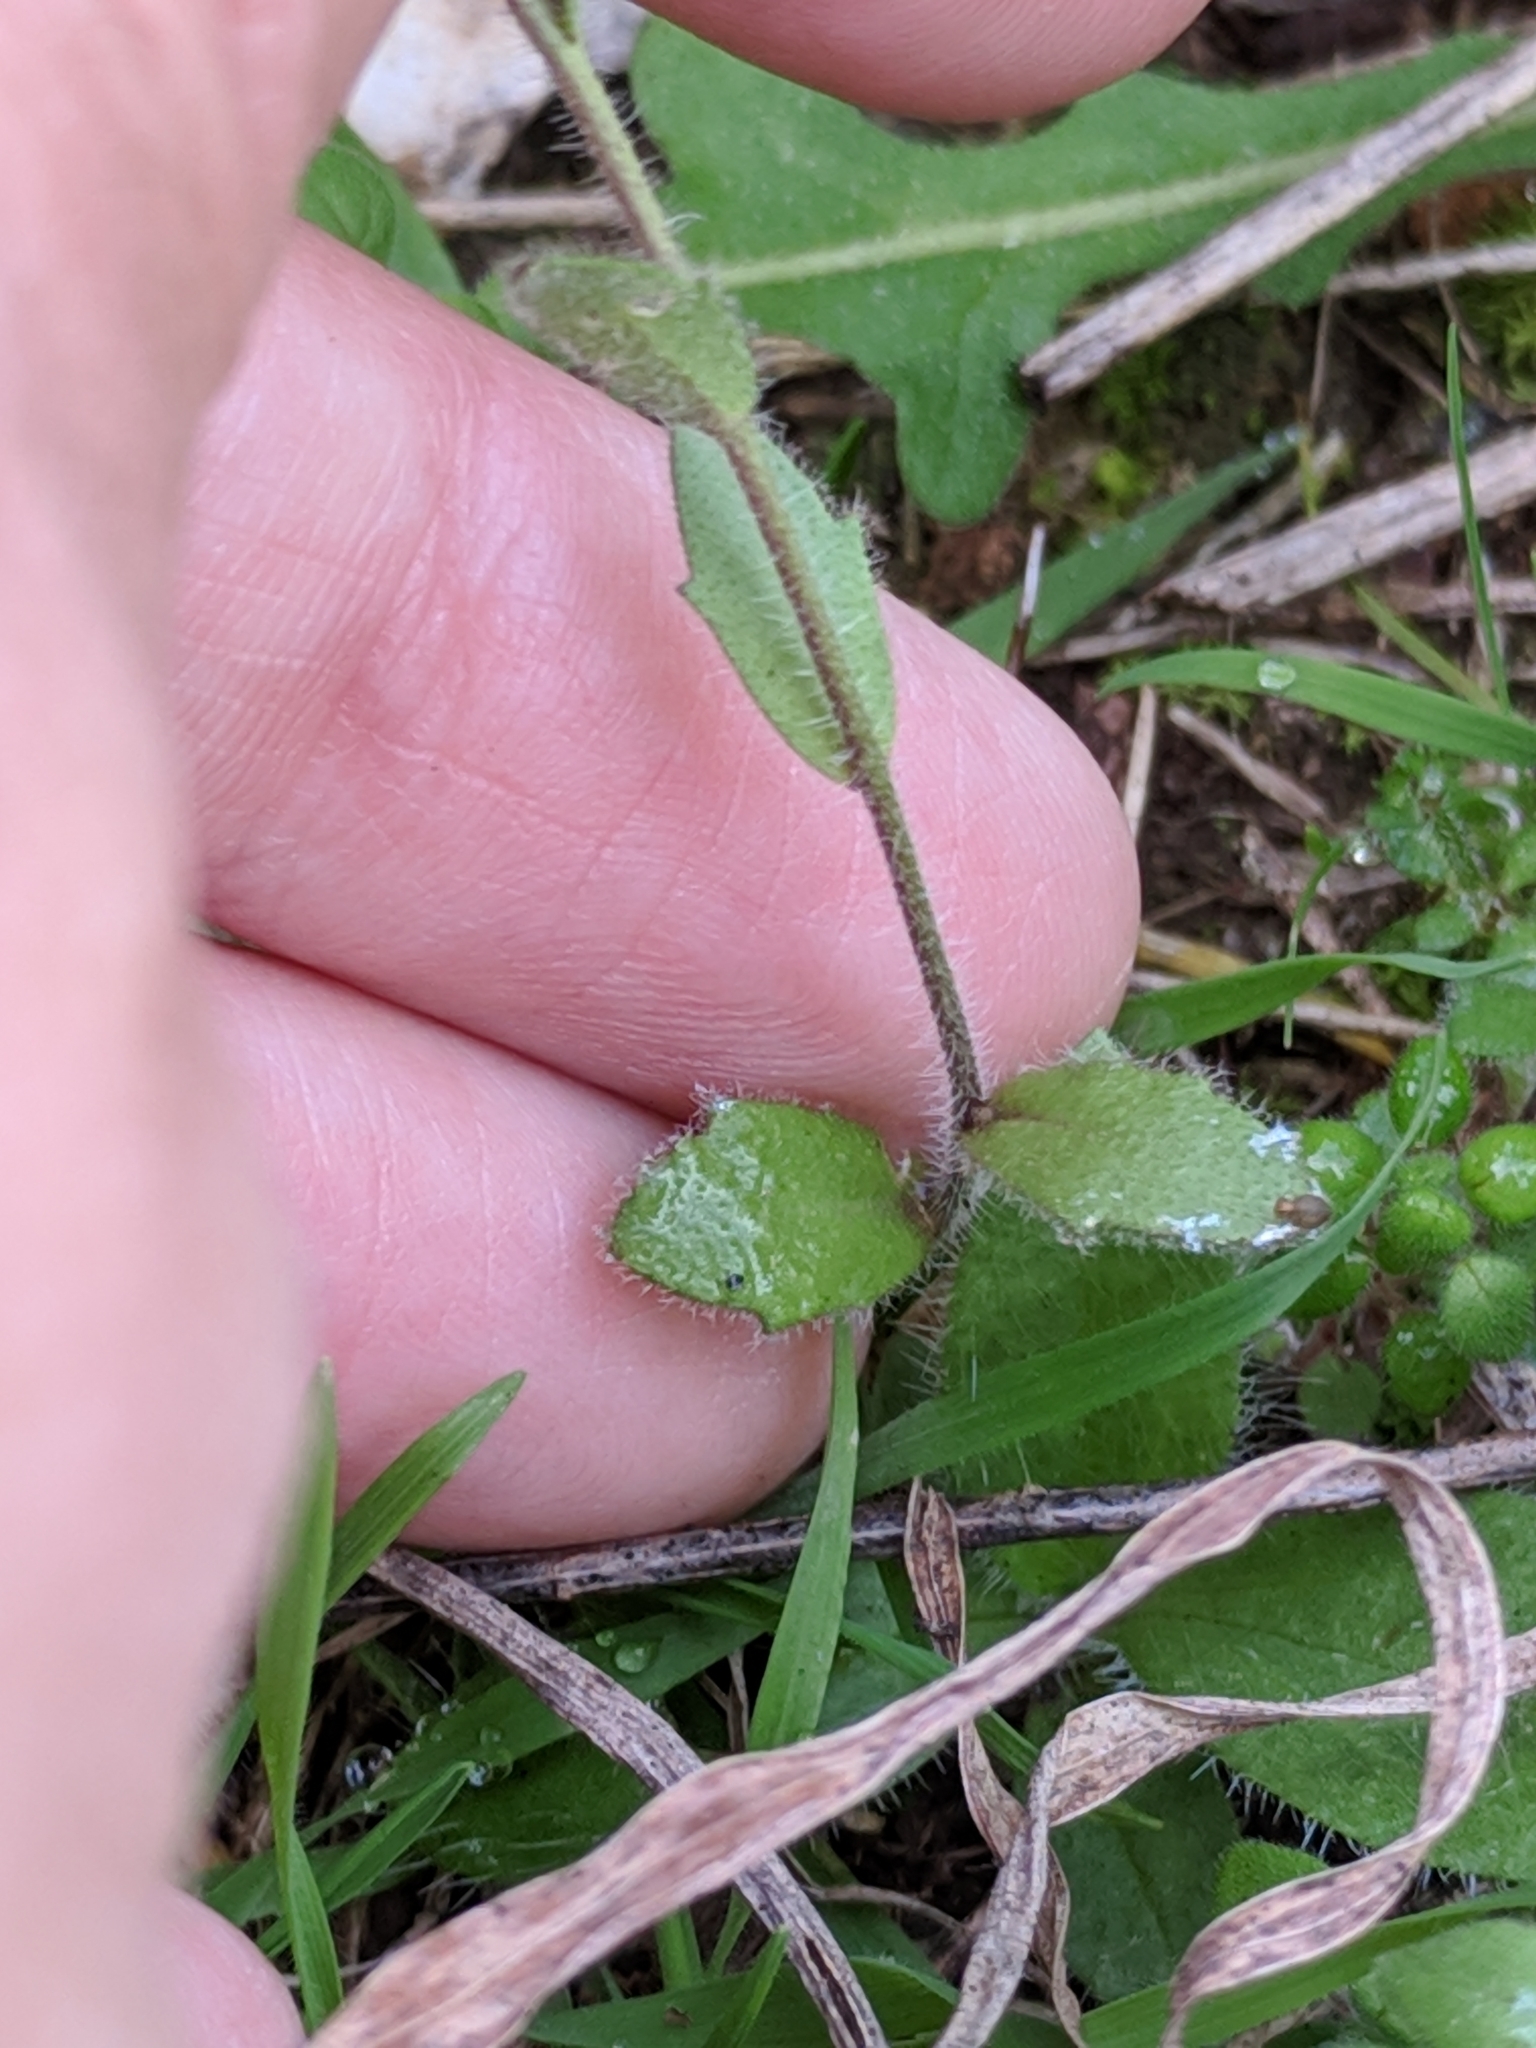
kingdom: Plantae
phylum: Tracheophyta
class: Magnoliopsida
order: Brassicales
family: Brassicaceae
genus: Tomostima
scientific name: Tomostima platycarpa
